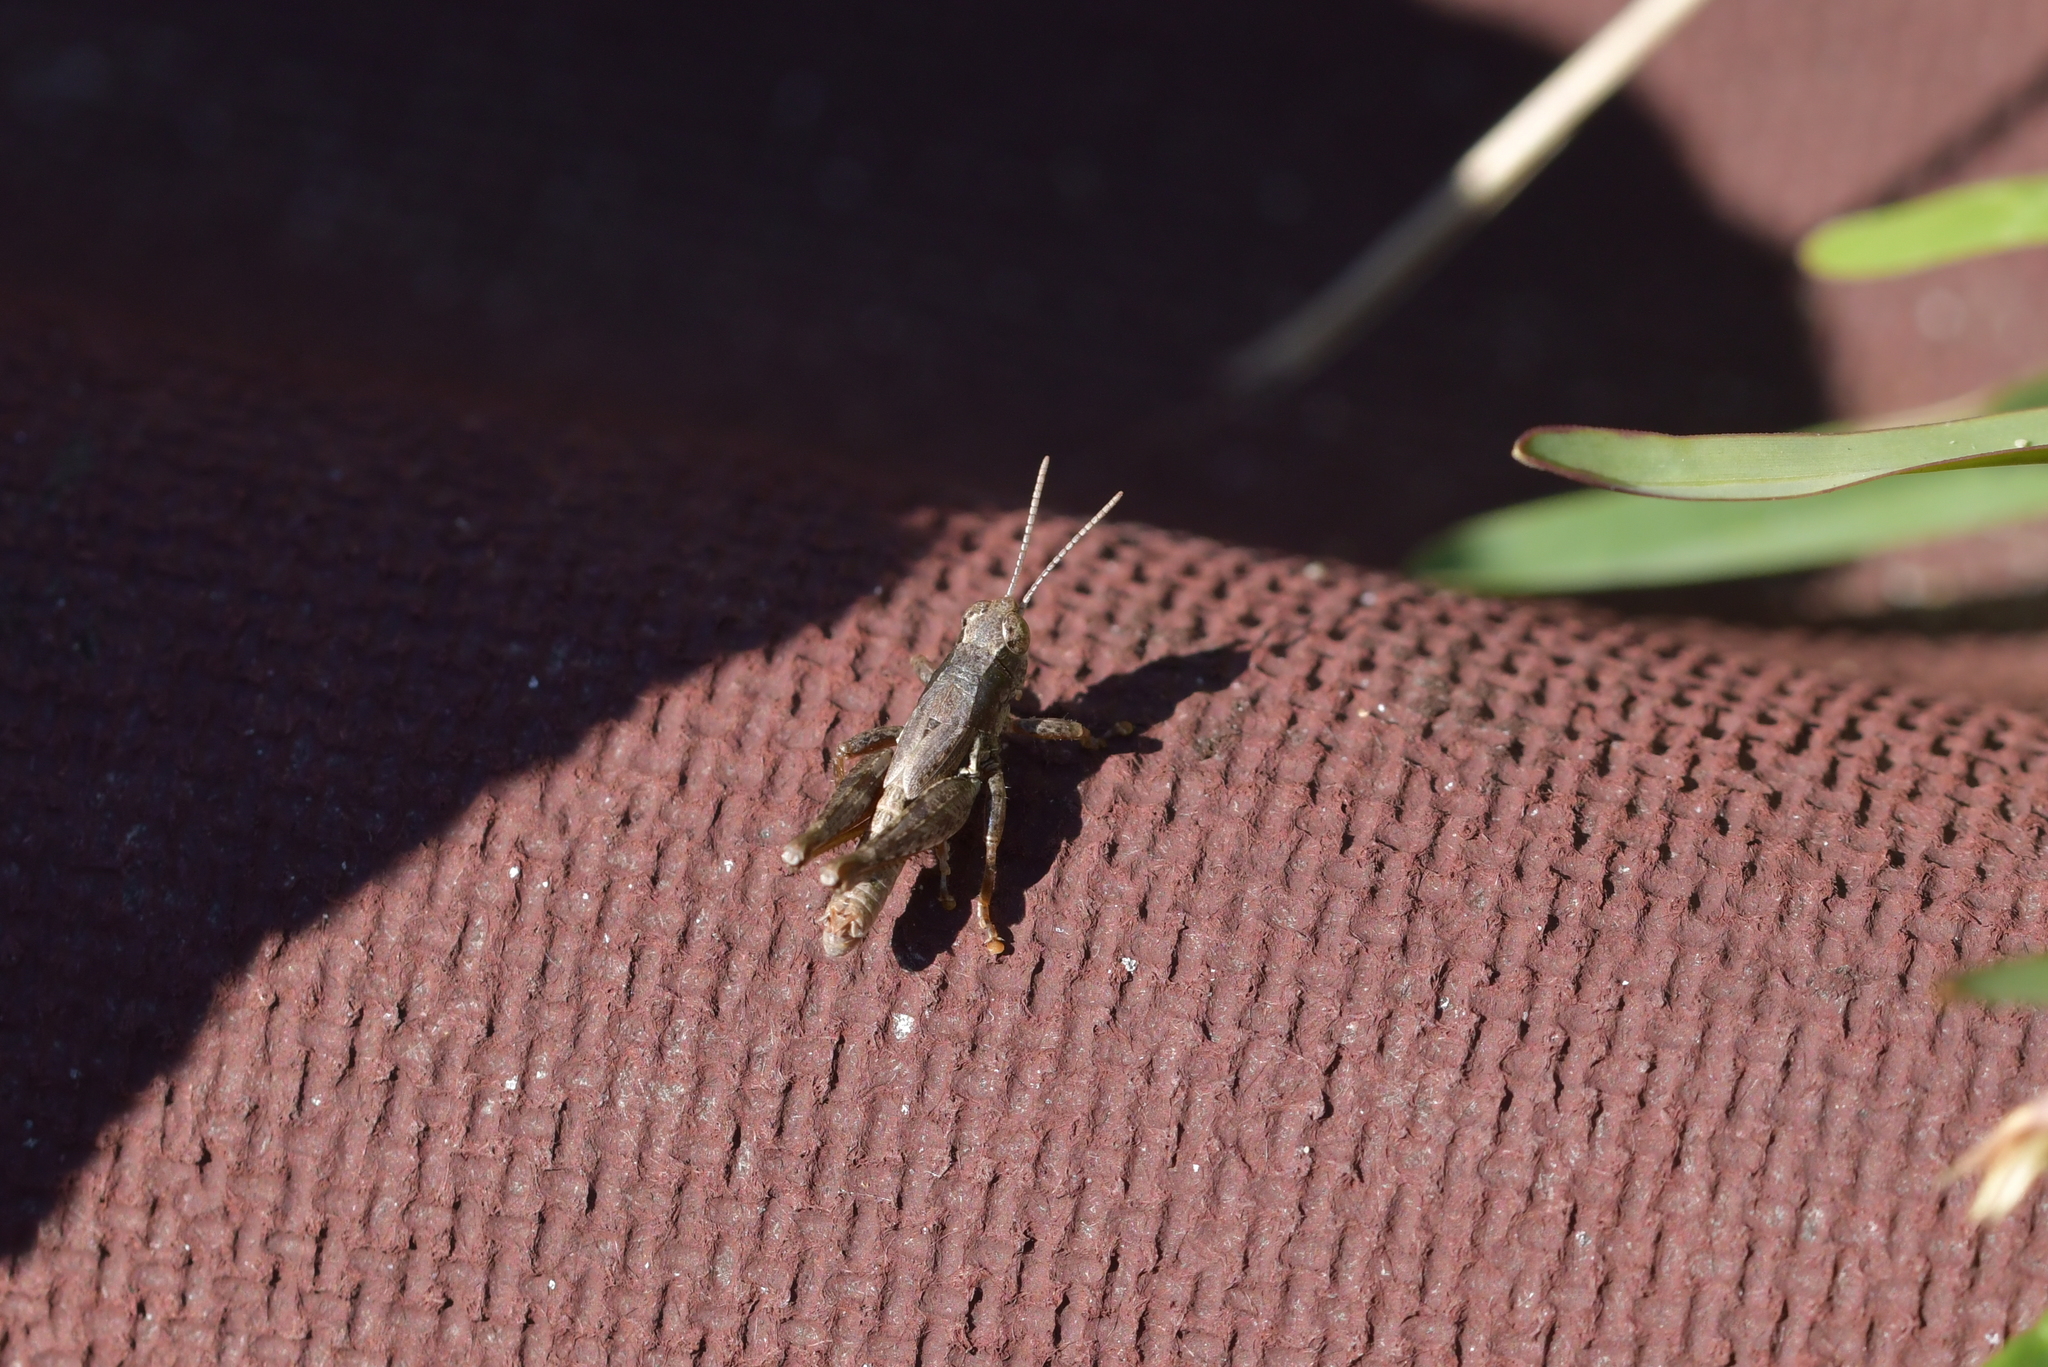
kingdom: Animalia
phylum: Arthropoda
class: Insecta
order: Orthoptera
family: Acrididae
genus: Phaulacridium
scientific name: Phaulacridium marginale
